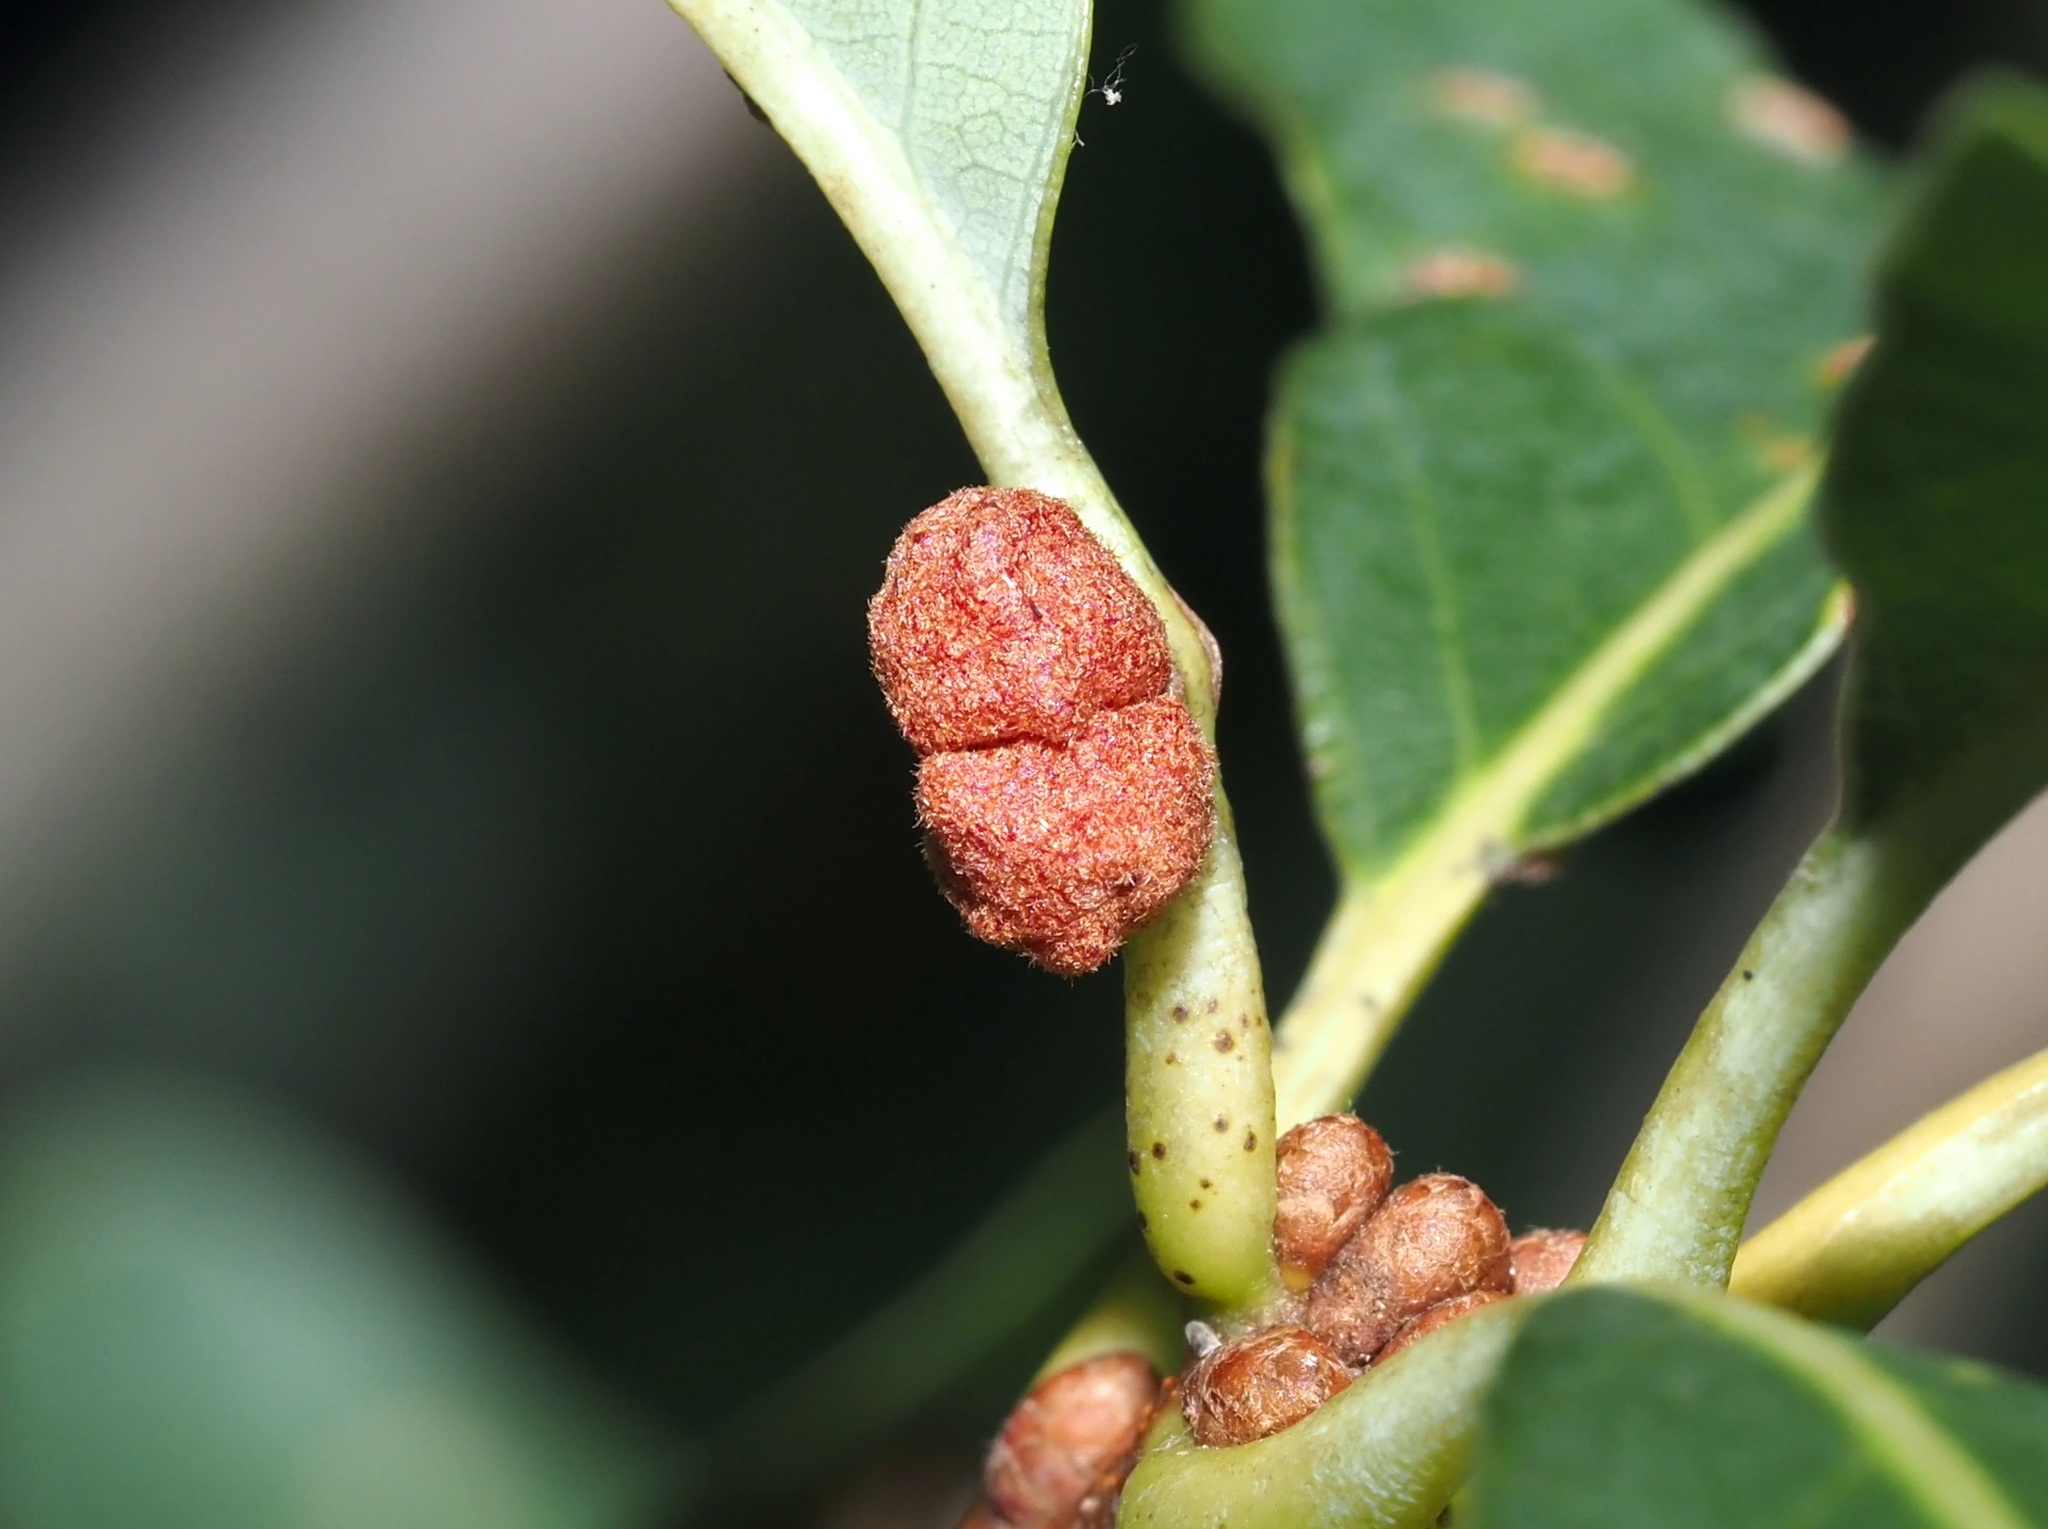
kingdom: Animalia
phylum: Arthropoda
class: Insecta
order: Hymenoptera
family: Cynipidae
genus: Andricus
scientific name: Andricus
